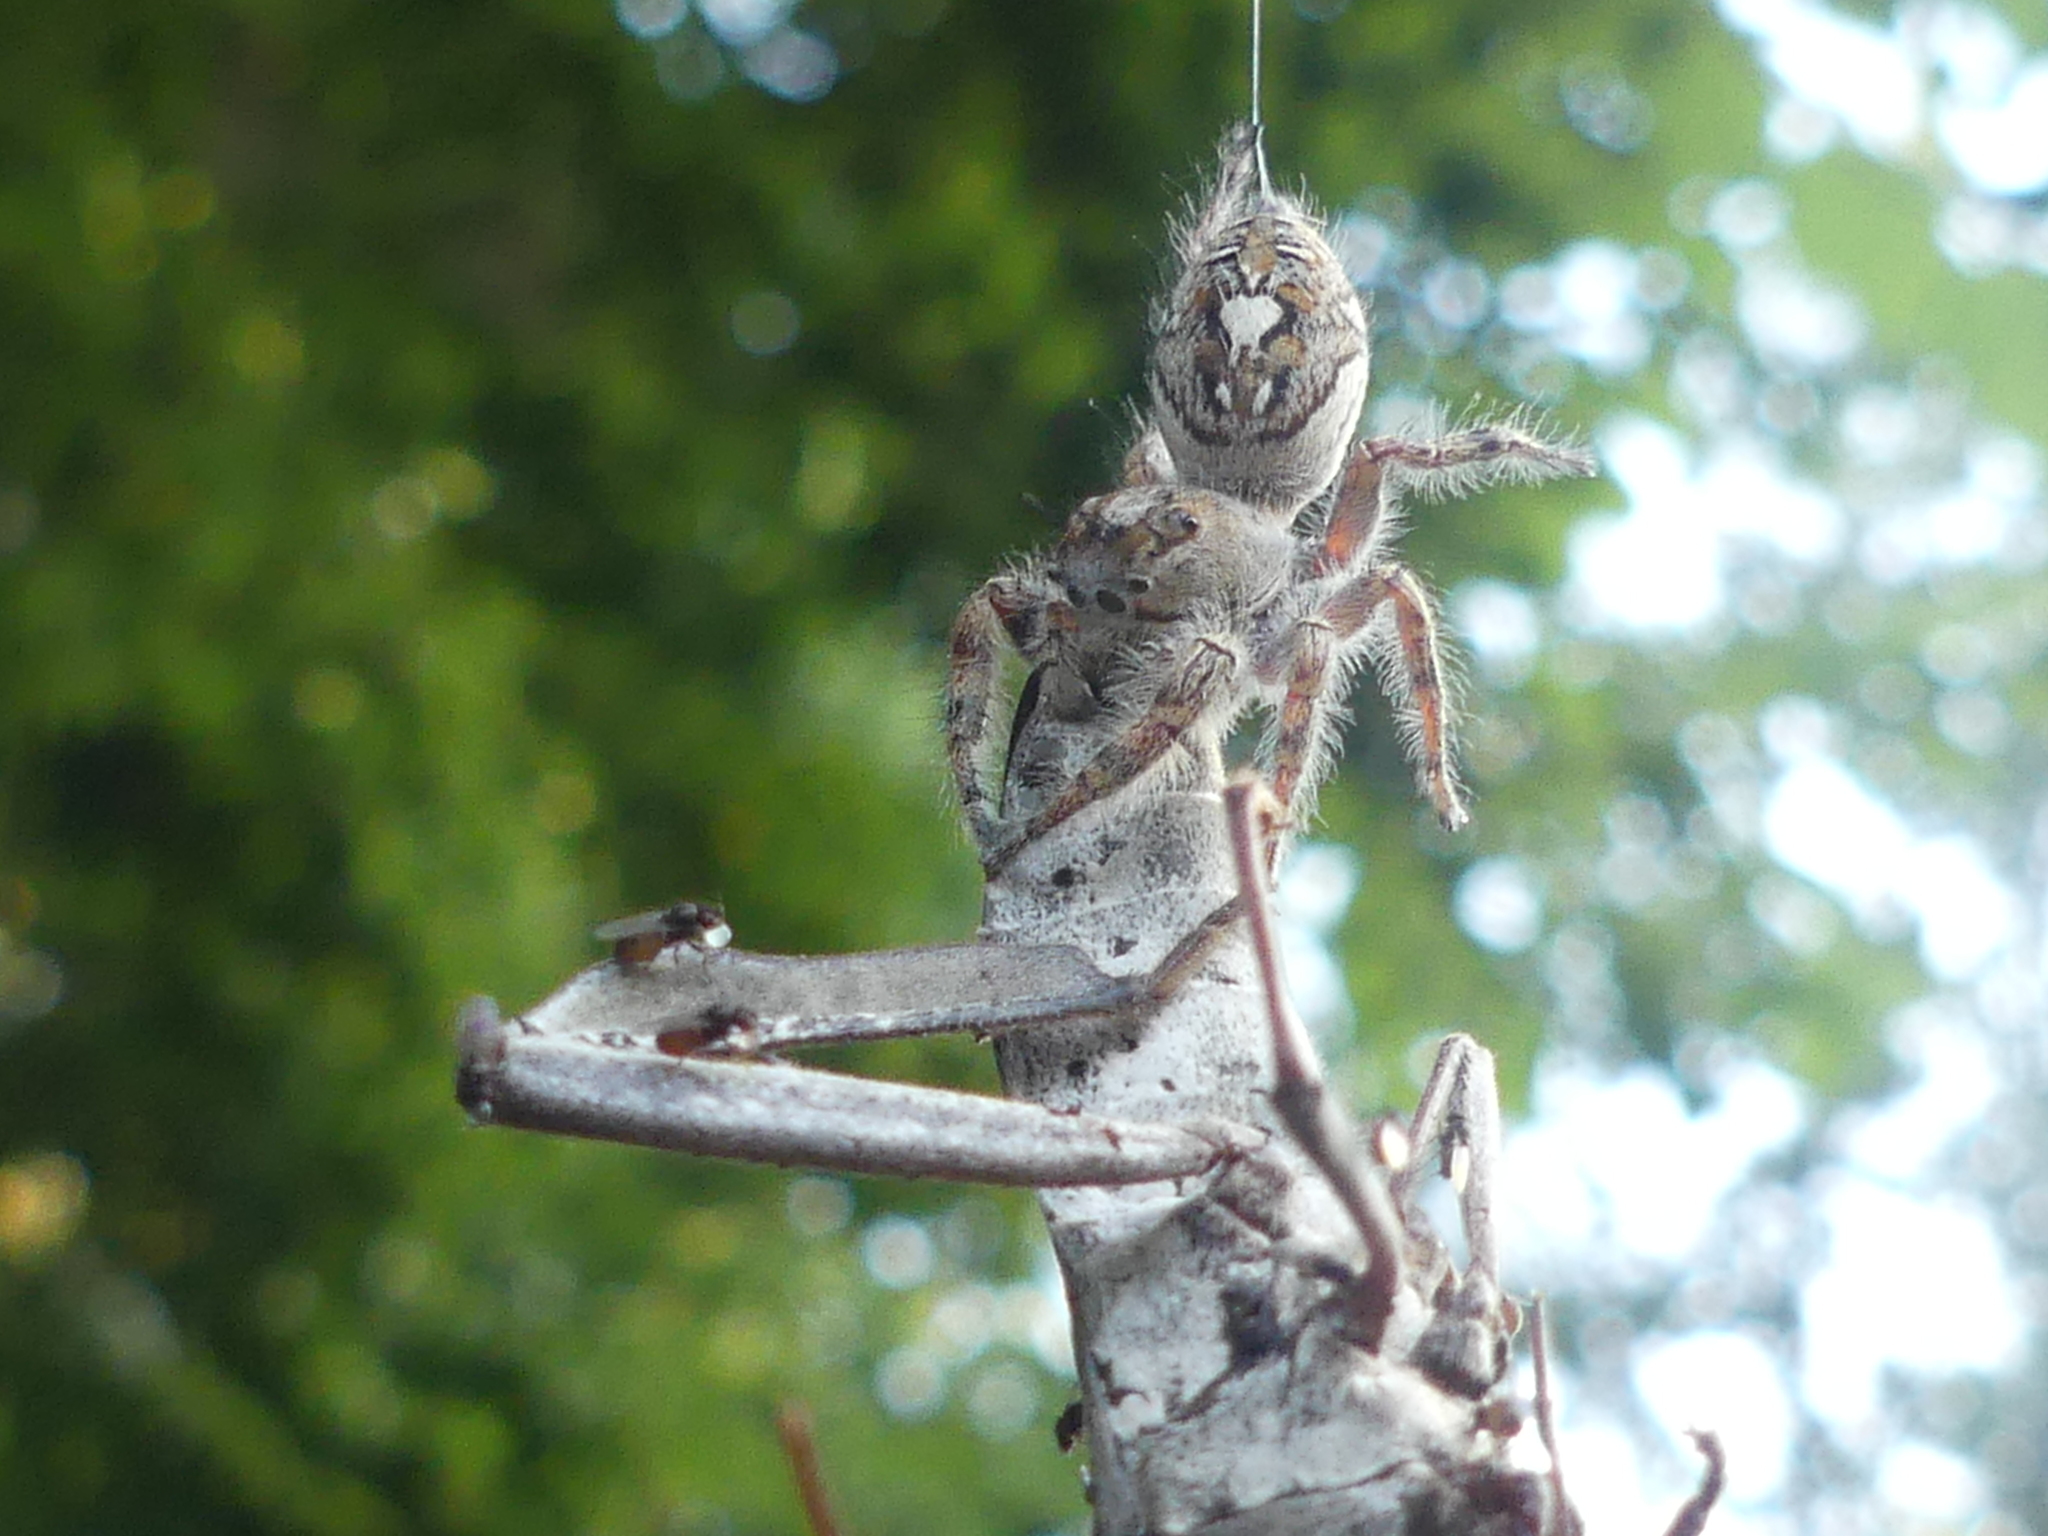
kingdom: Animalia
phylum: Arthropoda
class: Arachnida
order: Araneae
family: Salticidae
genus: Phidippus
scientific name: Phidippus putnami
